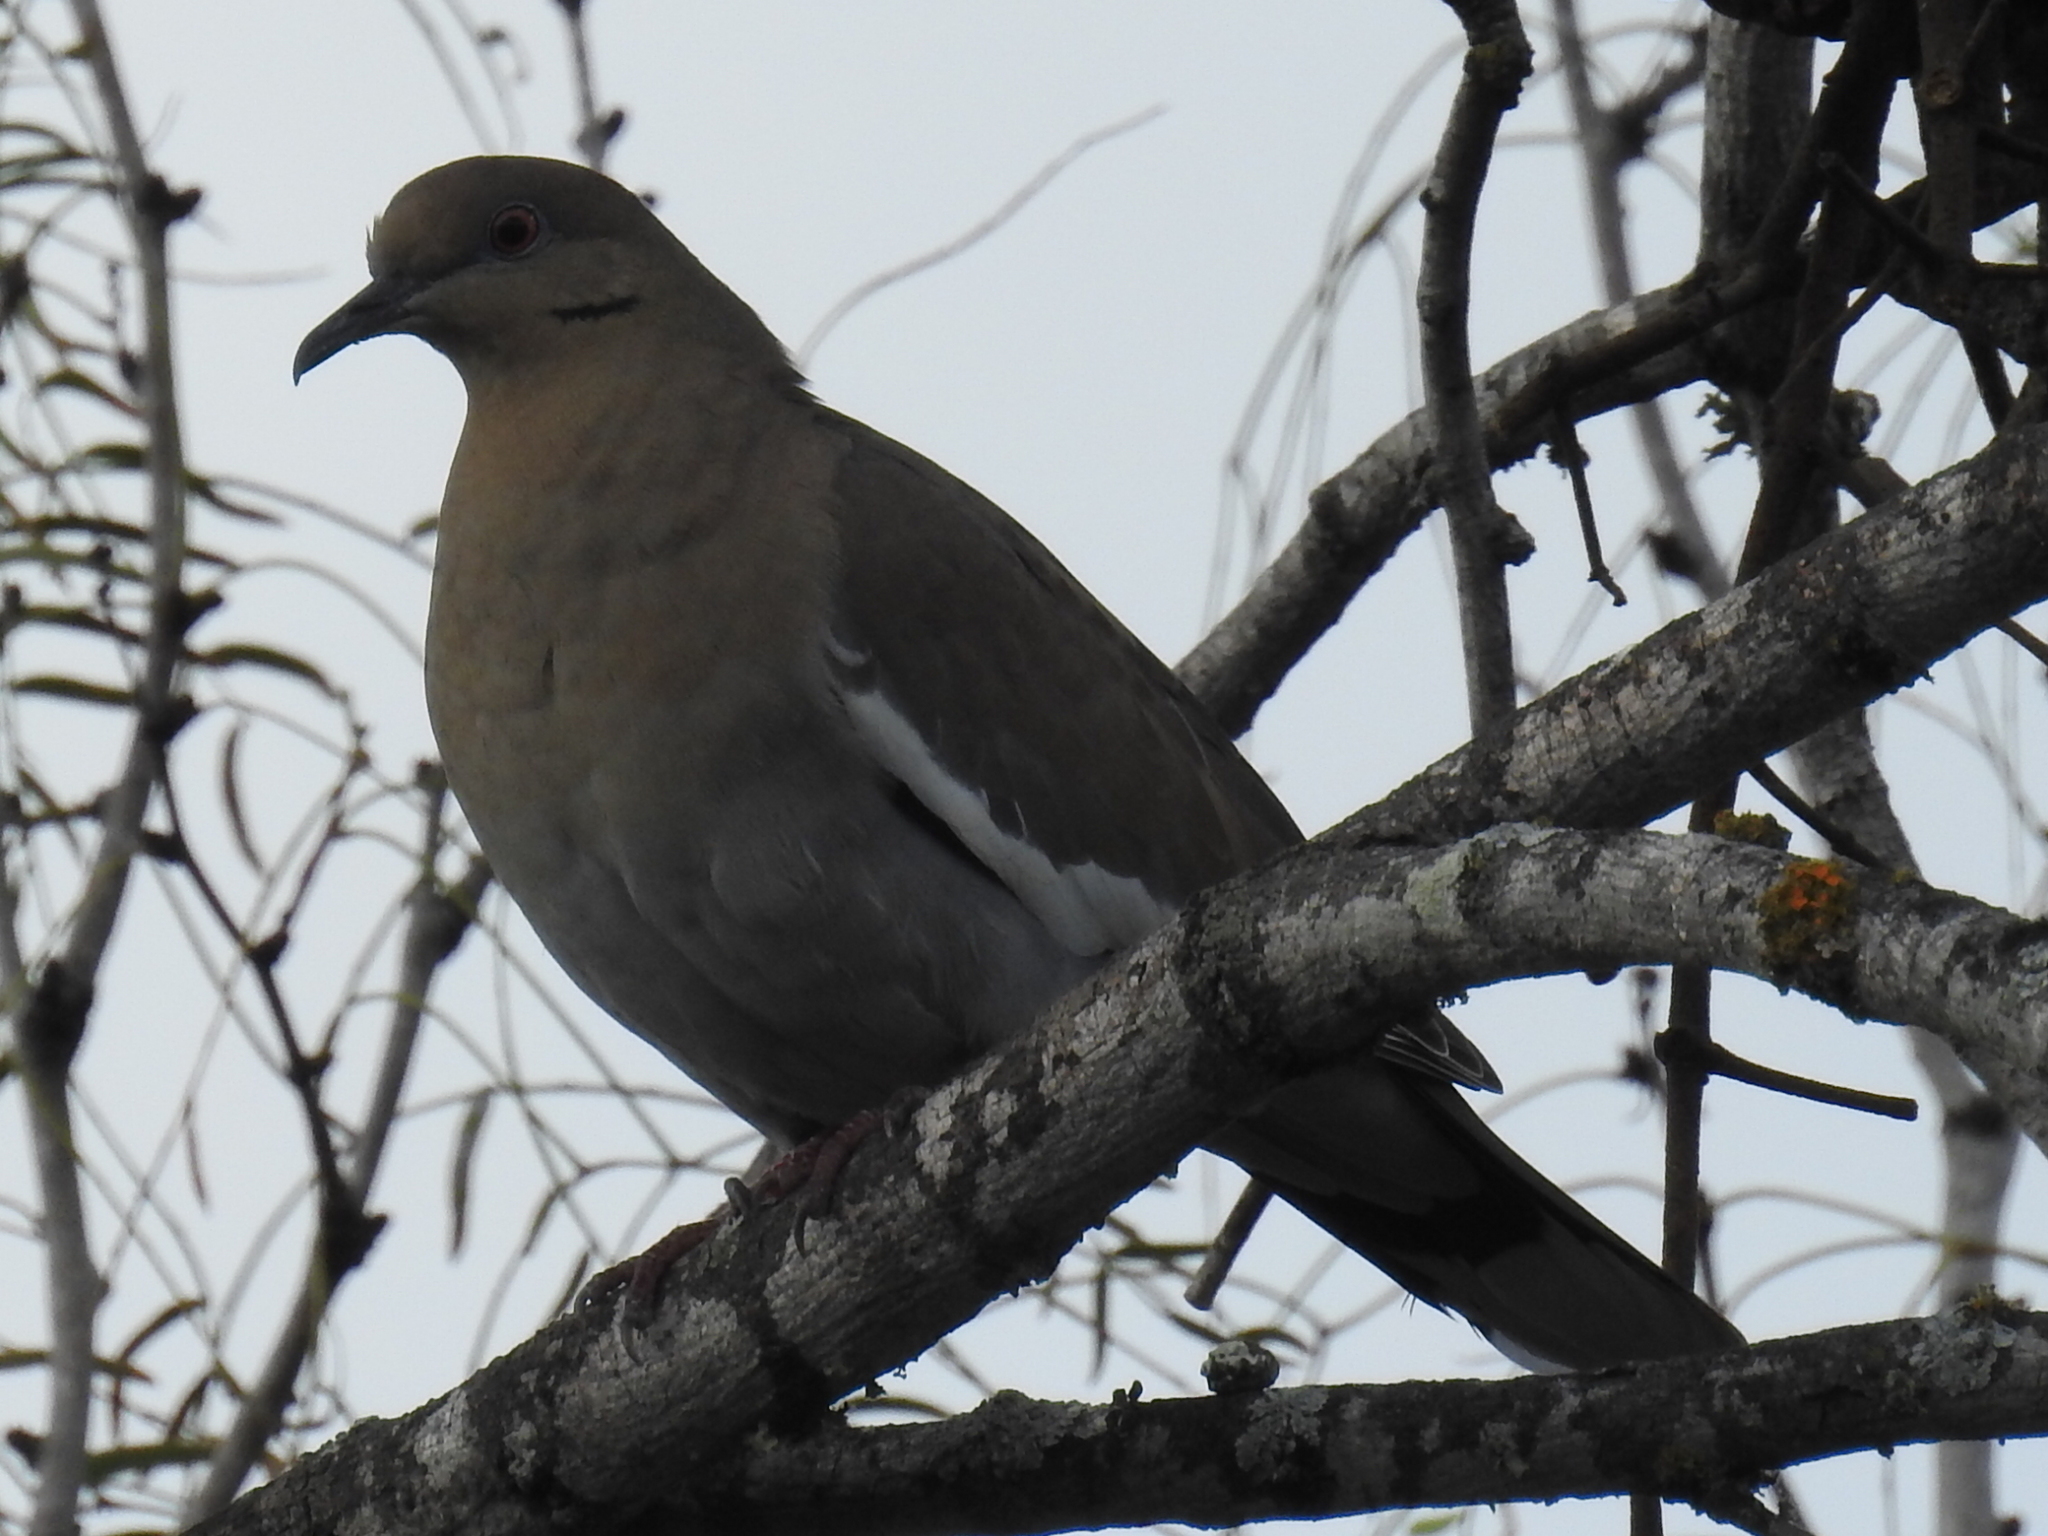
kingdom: Animalia
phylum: Chordata
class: Aves
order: Columbiformes
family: Columbidae
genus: Zenaida
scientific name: Zenaida asiatica
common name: White-winged dove
